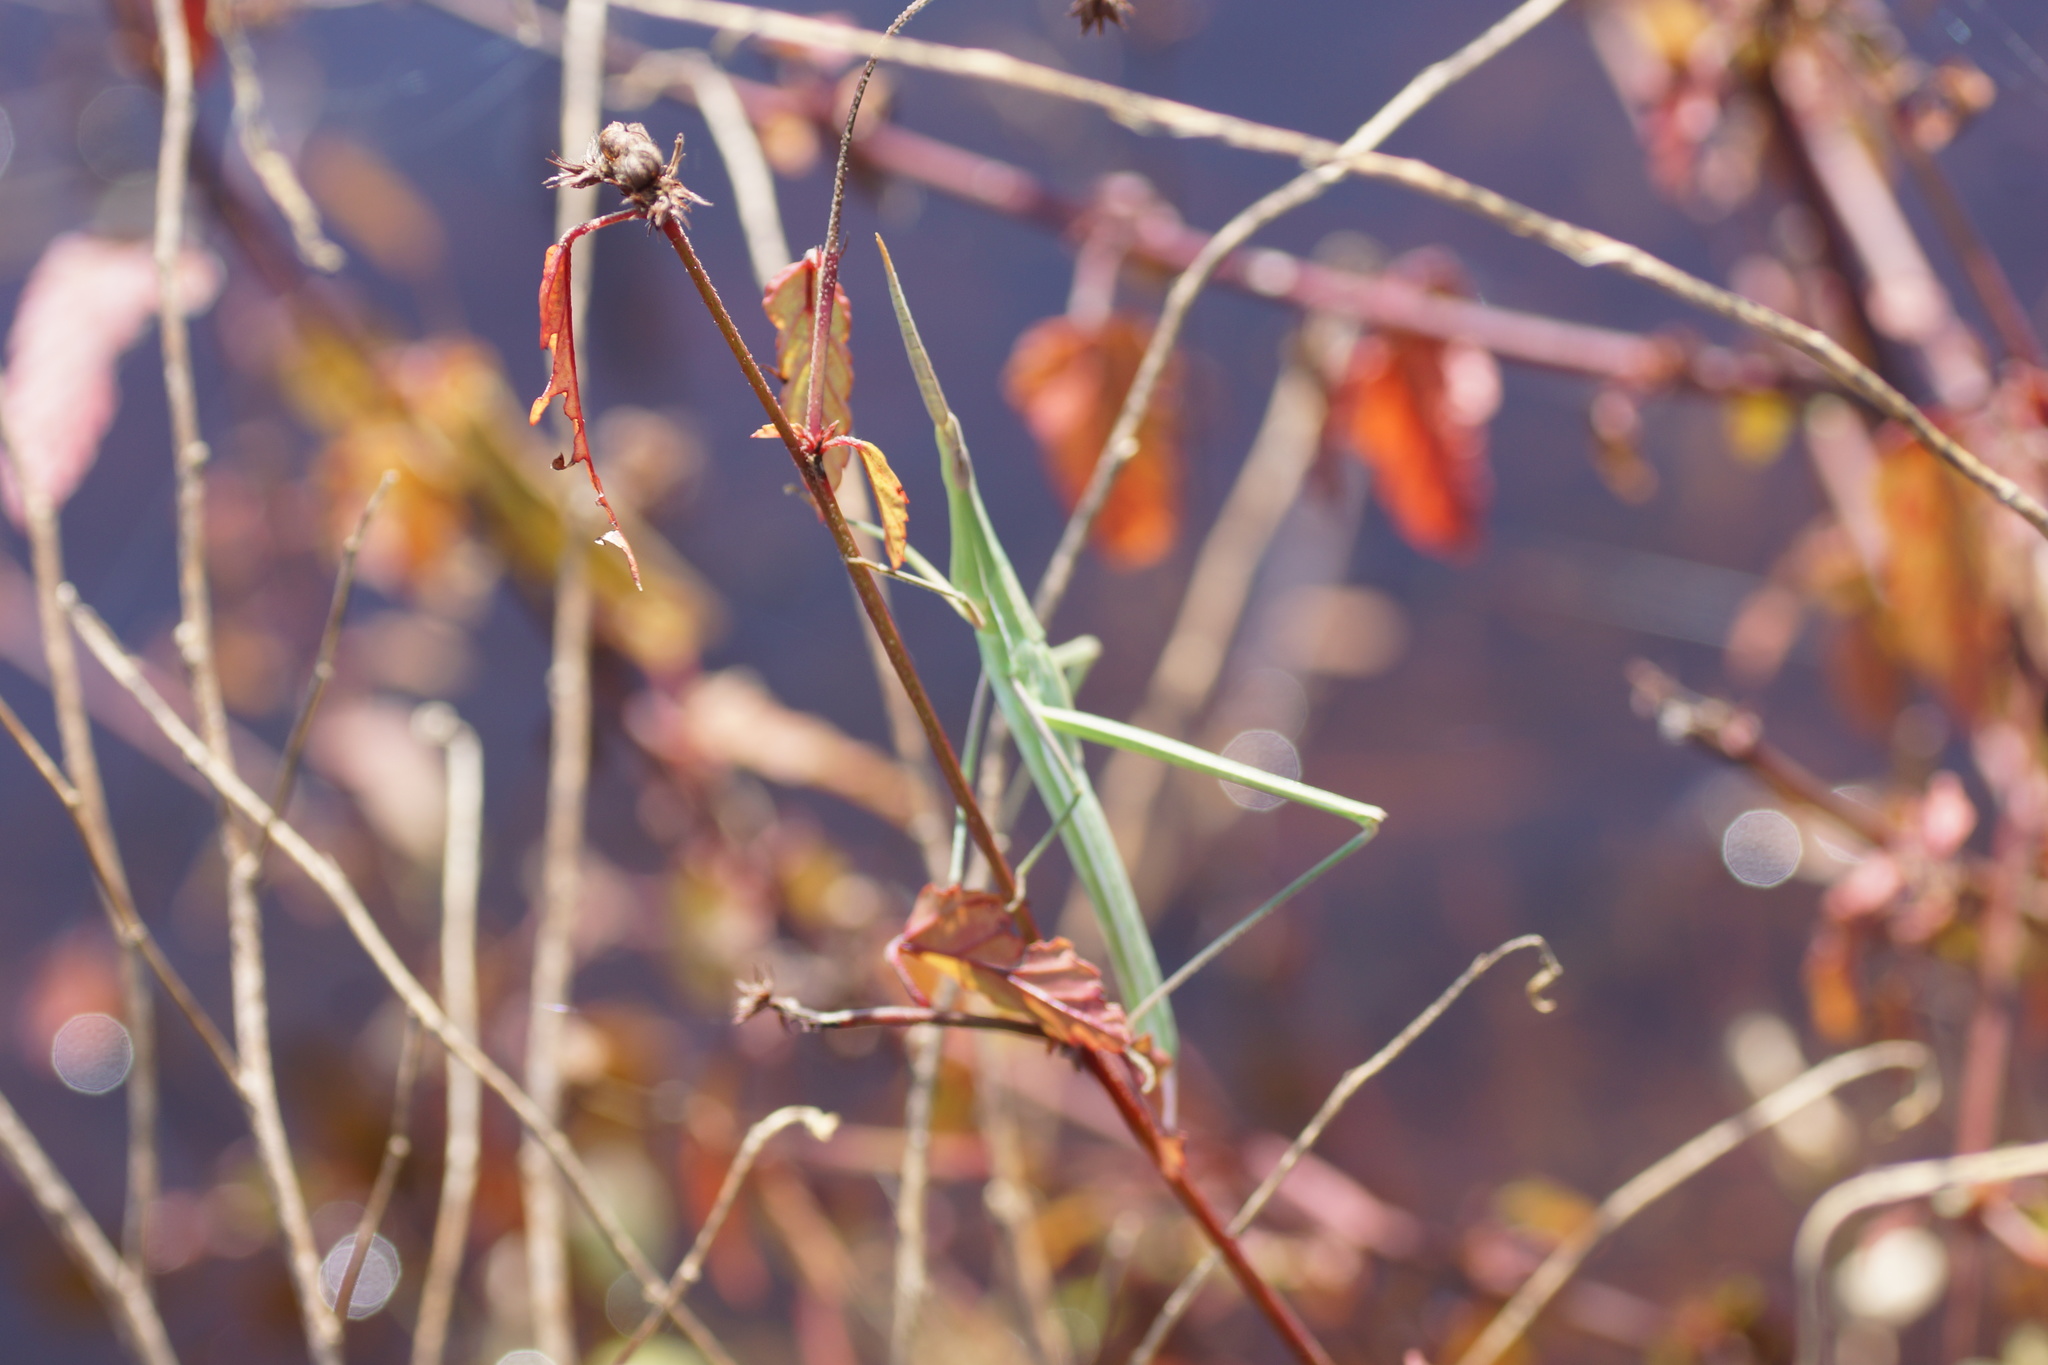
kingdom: Animalia
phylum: Arthropoda
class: Insecta
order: Orthoptera
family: Acrididae
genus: Acrida
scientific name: Acrida conica
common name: Giant green slantface
